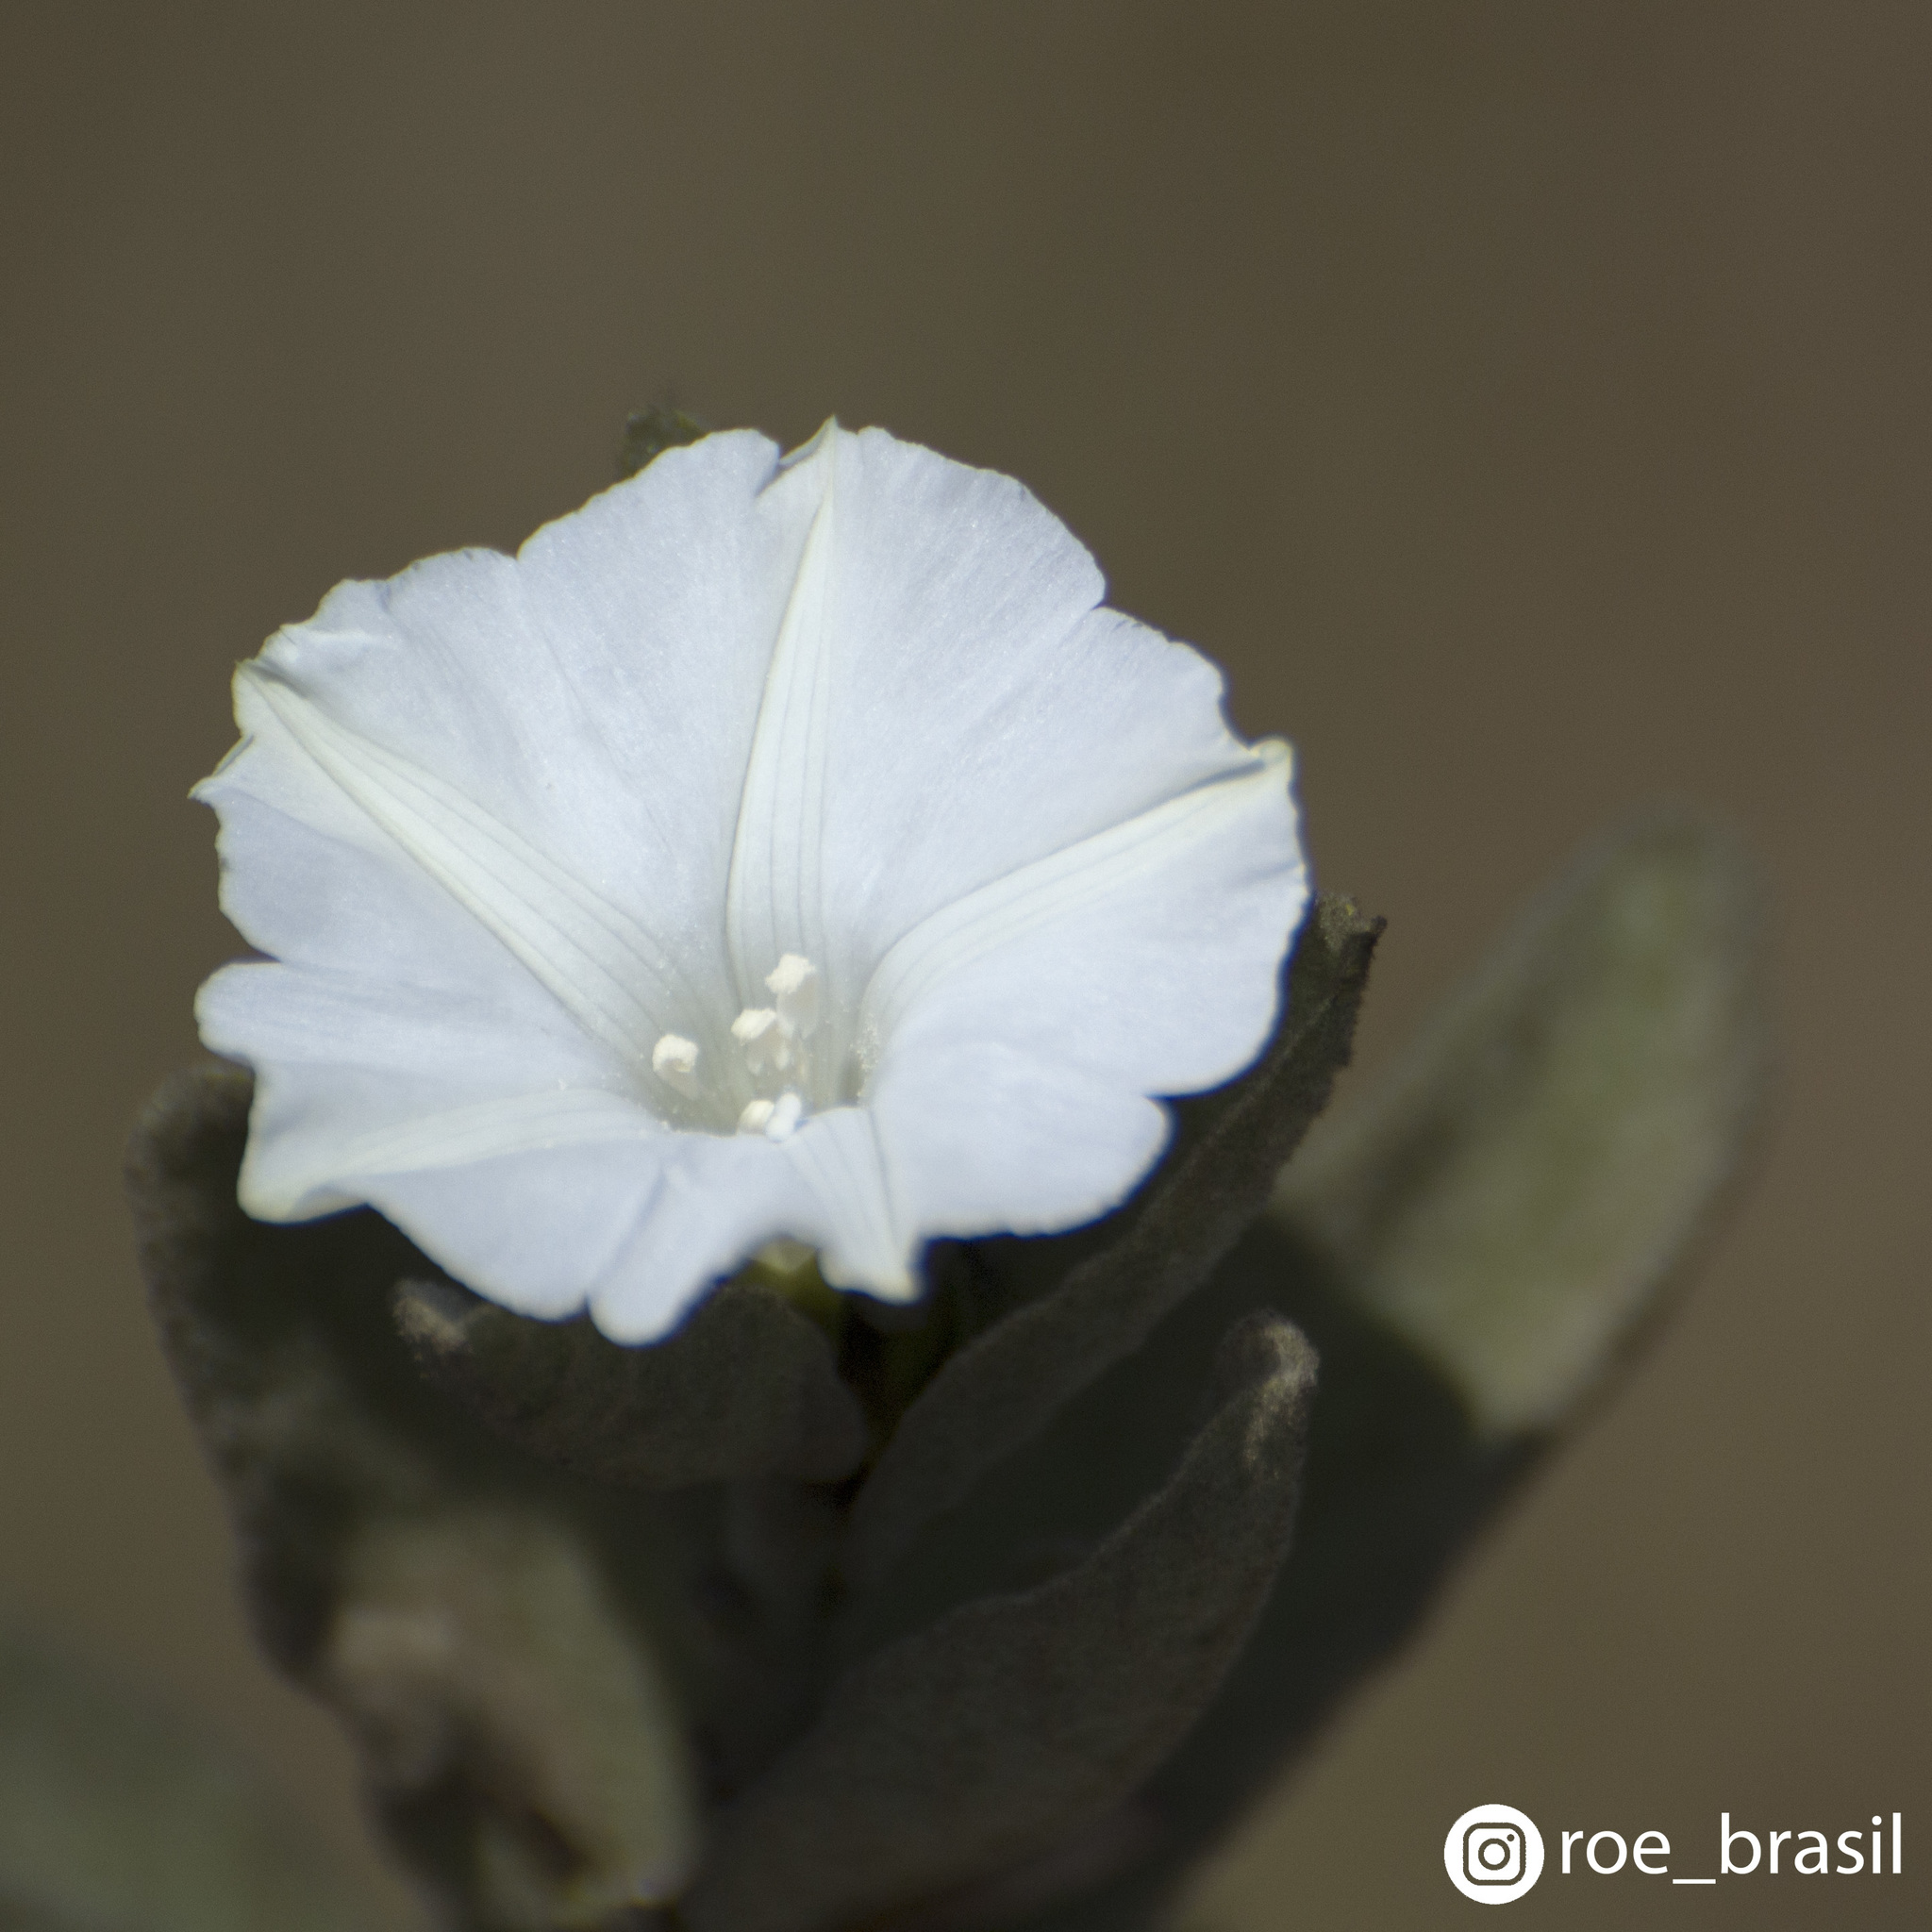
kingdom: Plantae
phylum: Tracheophyta
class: Magnoliopsida
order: Solanales
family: Convolvulaceae
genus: Distimake
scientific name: Distimake tomentosus
